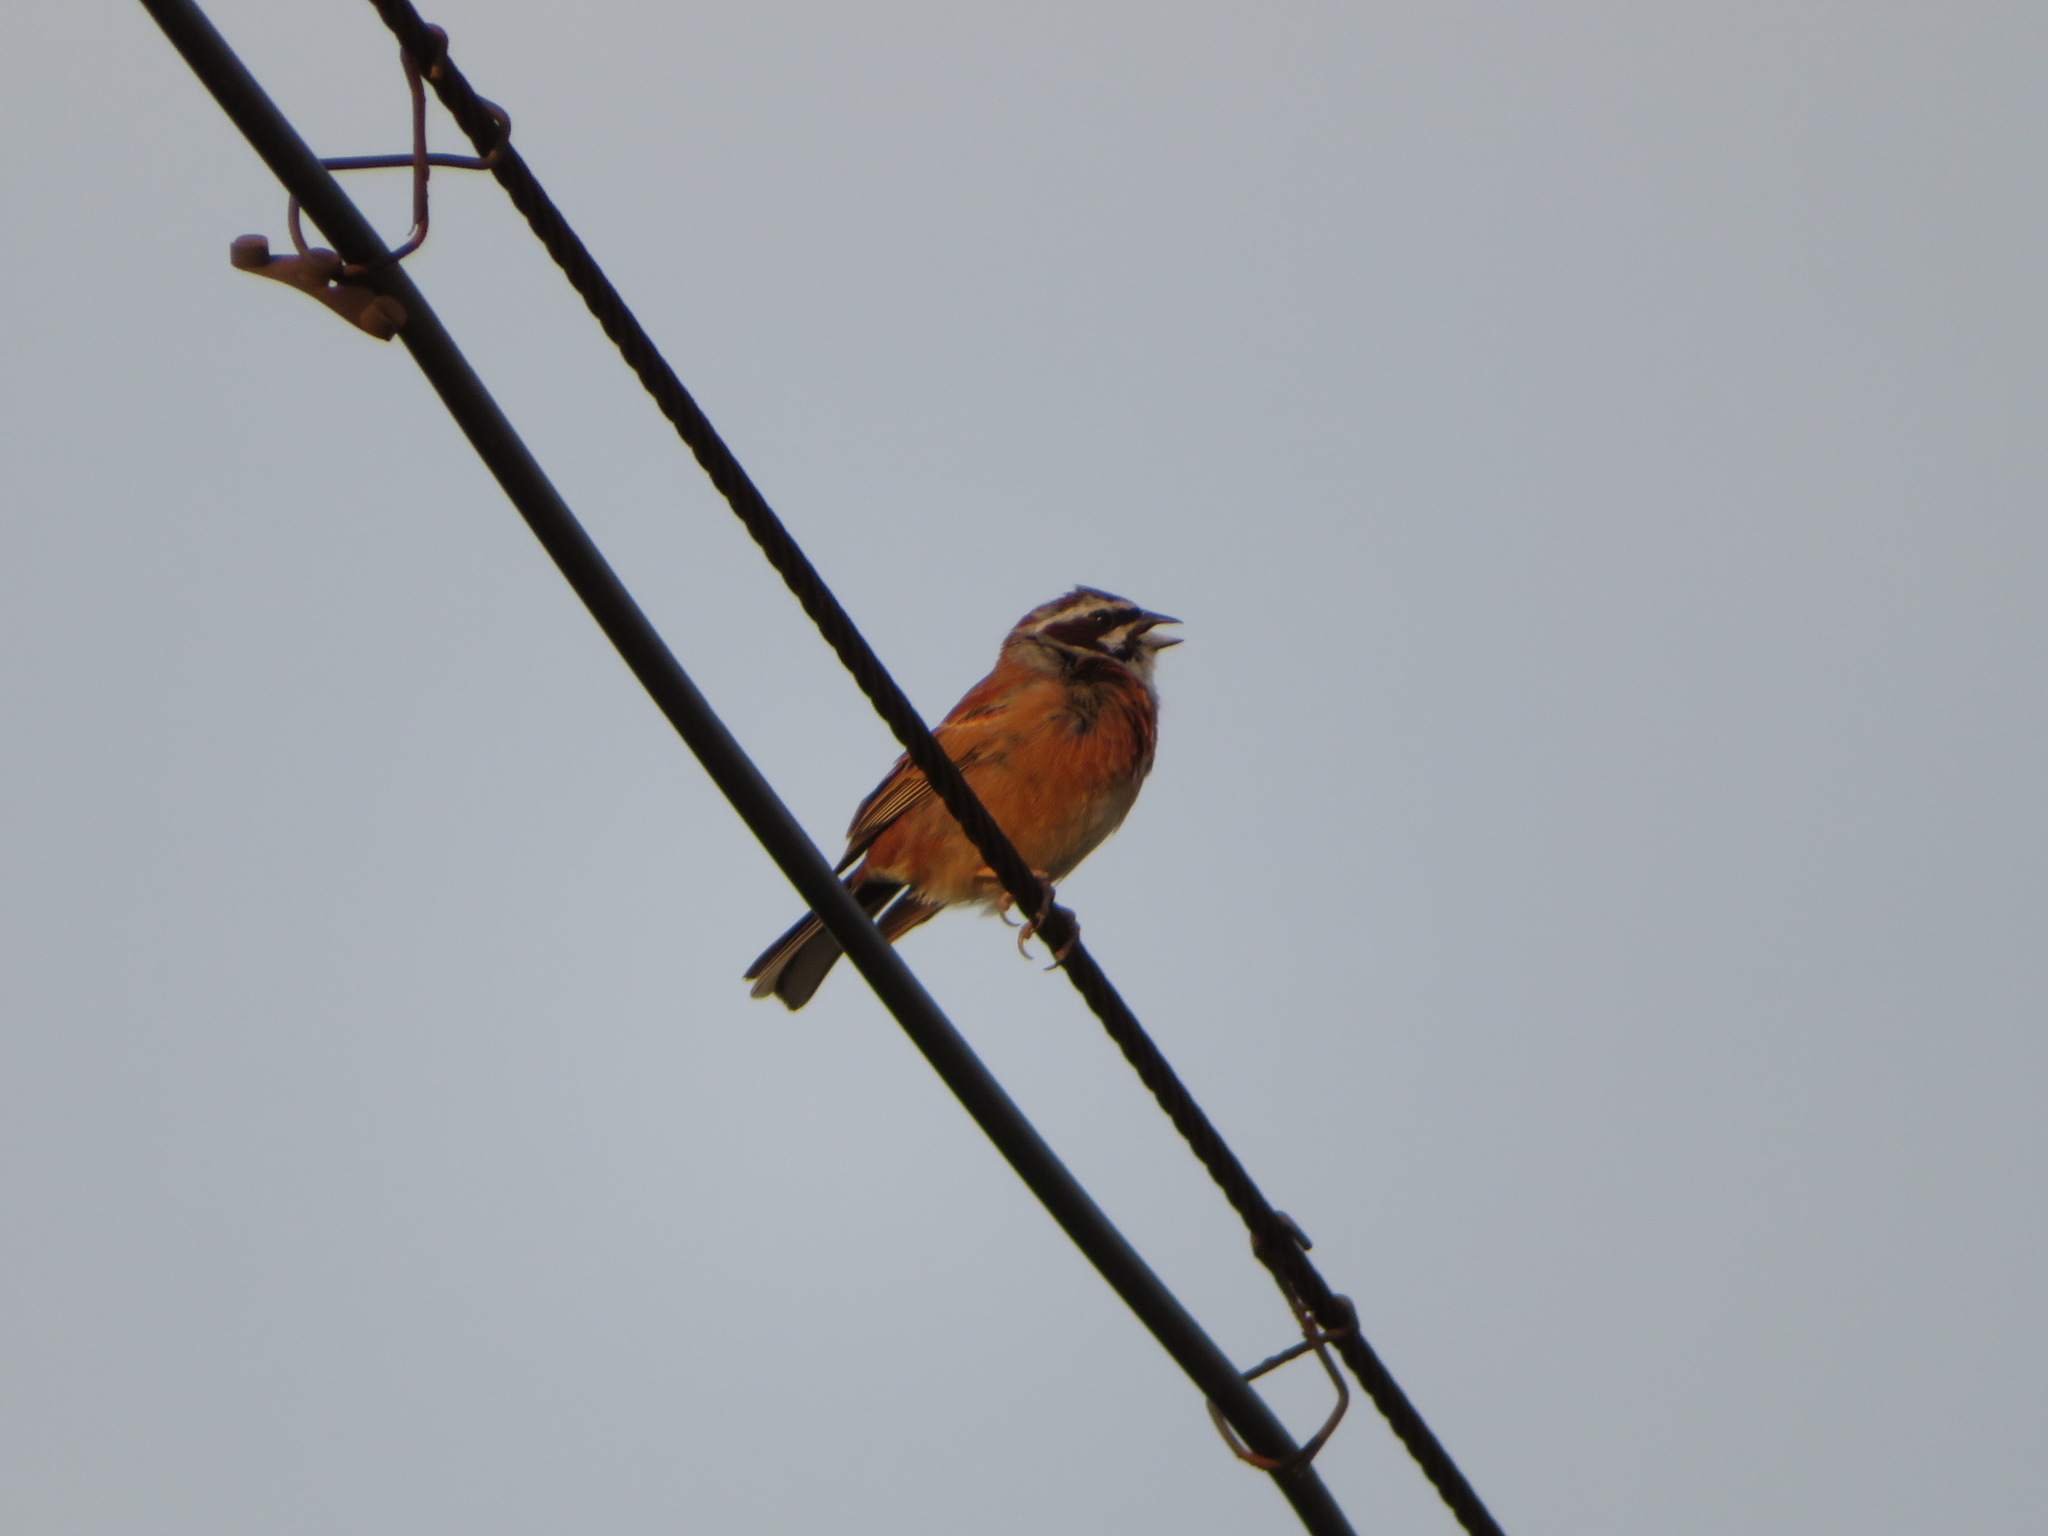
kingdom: Animalia
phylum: Chordata
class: Aves
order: Passeriformes
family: Emberizidae
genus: Emberiza
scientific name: Emberiza cioides
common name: Meadow bunting
